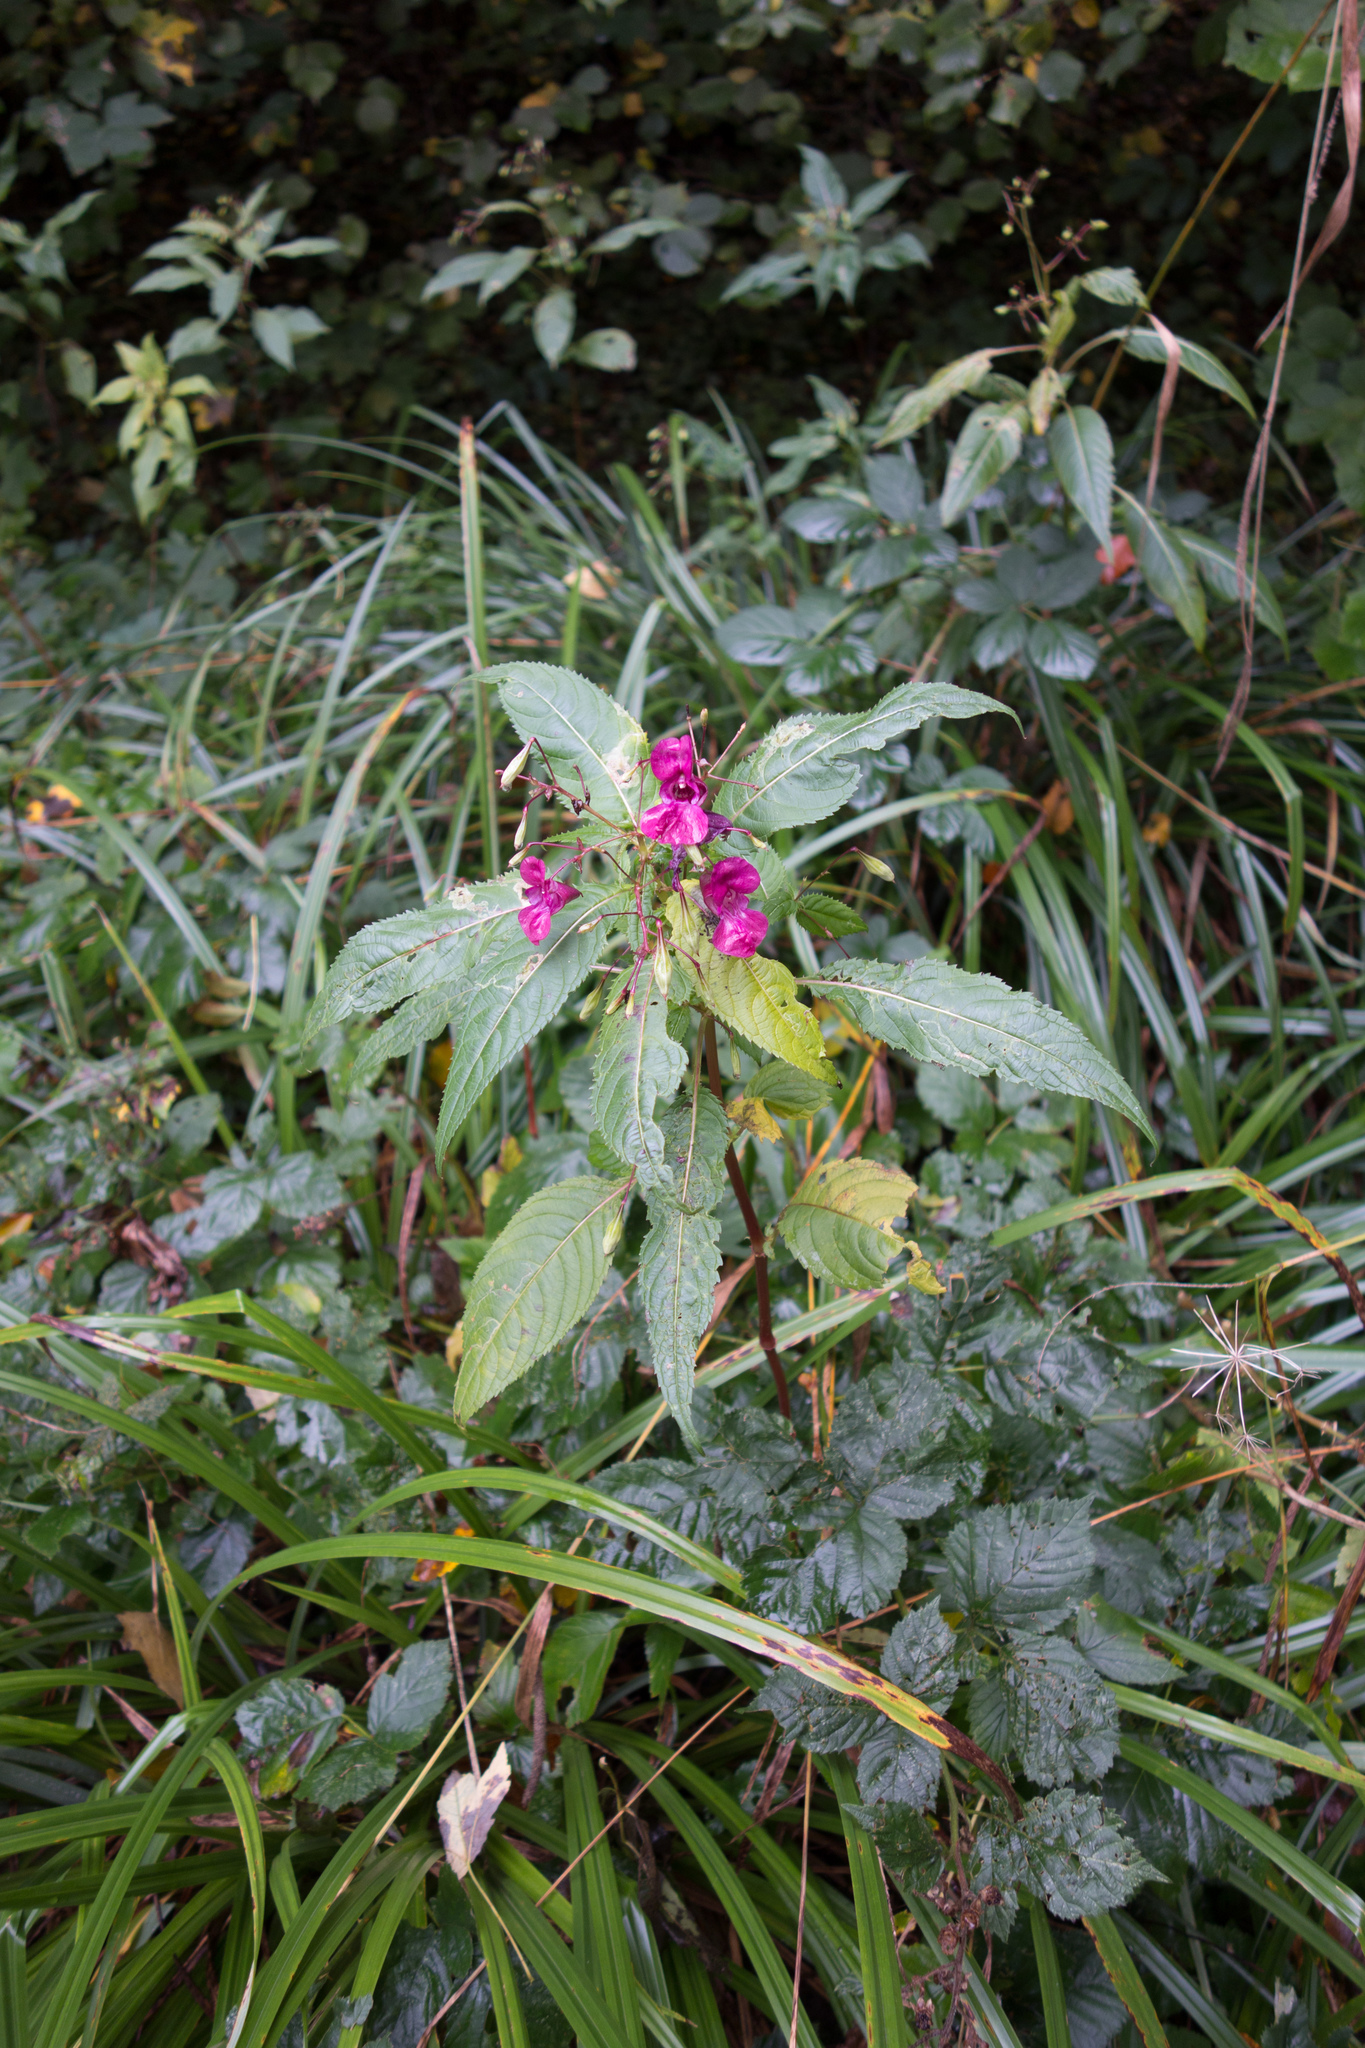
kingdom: Plantae
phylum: Tracheophyta
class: Magnoliopsida
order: Ericales
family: Balsaminaceae
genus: Impatiens
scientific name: Impatiens glandulifera
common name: Himalayan balsam
